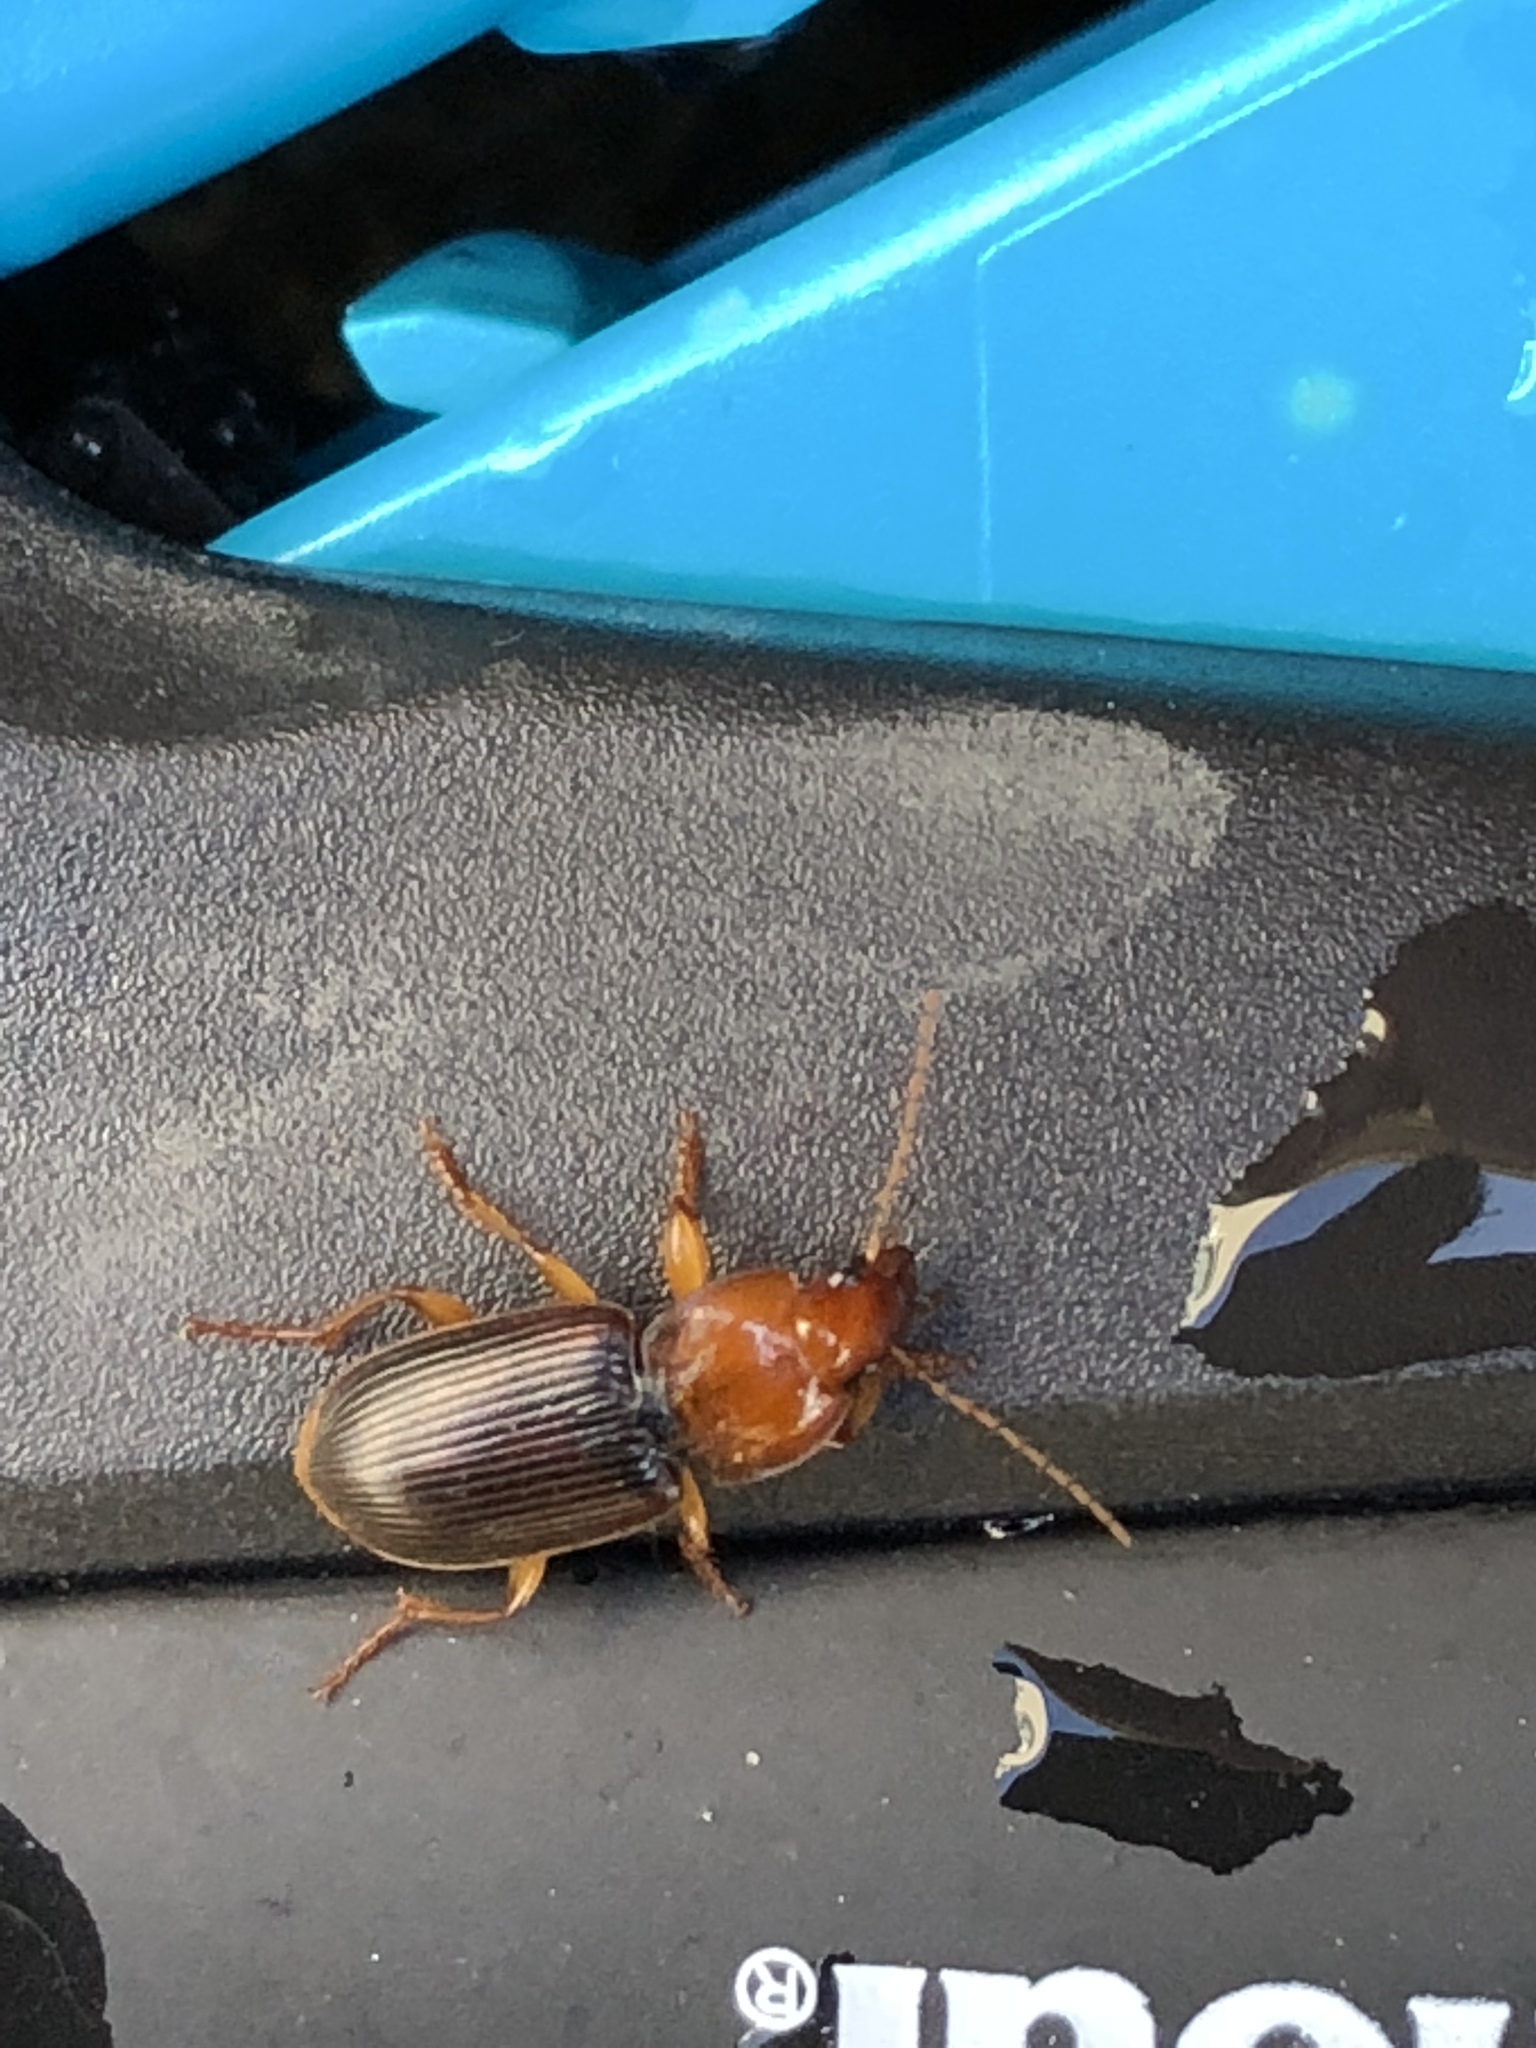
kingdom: Animalia
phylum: Arthropoda
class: Insecta
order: Coleoptera
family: Carabidae
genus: Amphasia
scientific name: Amphasia interstitialis
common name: Red-headed ground beetle
